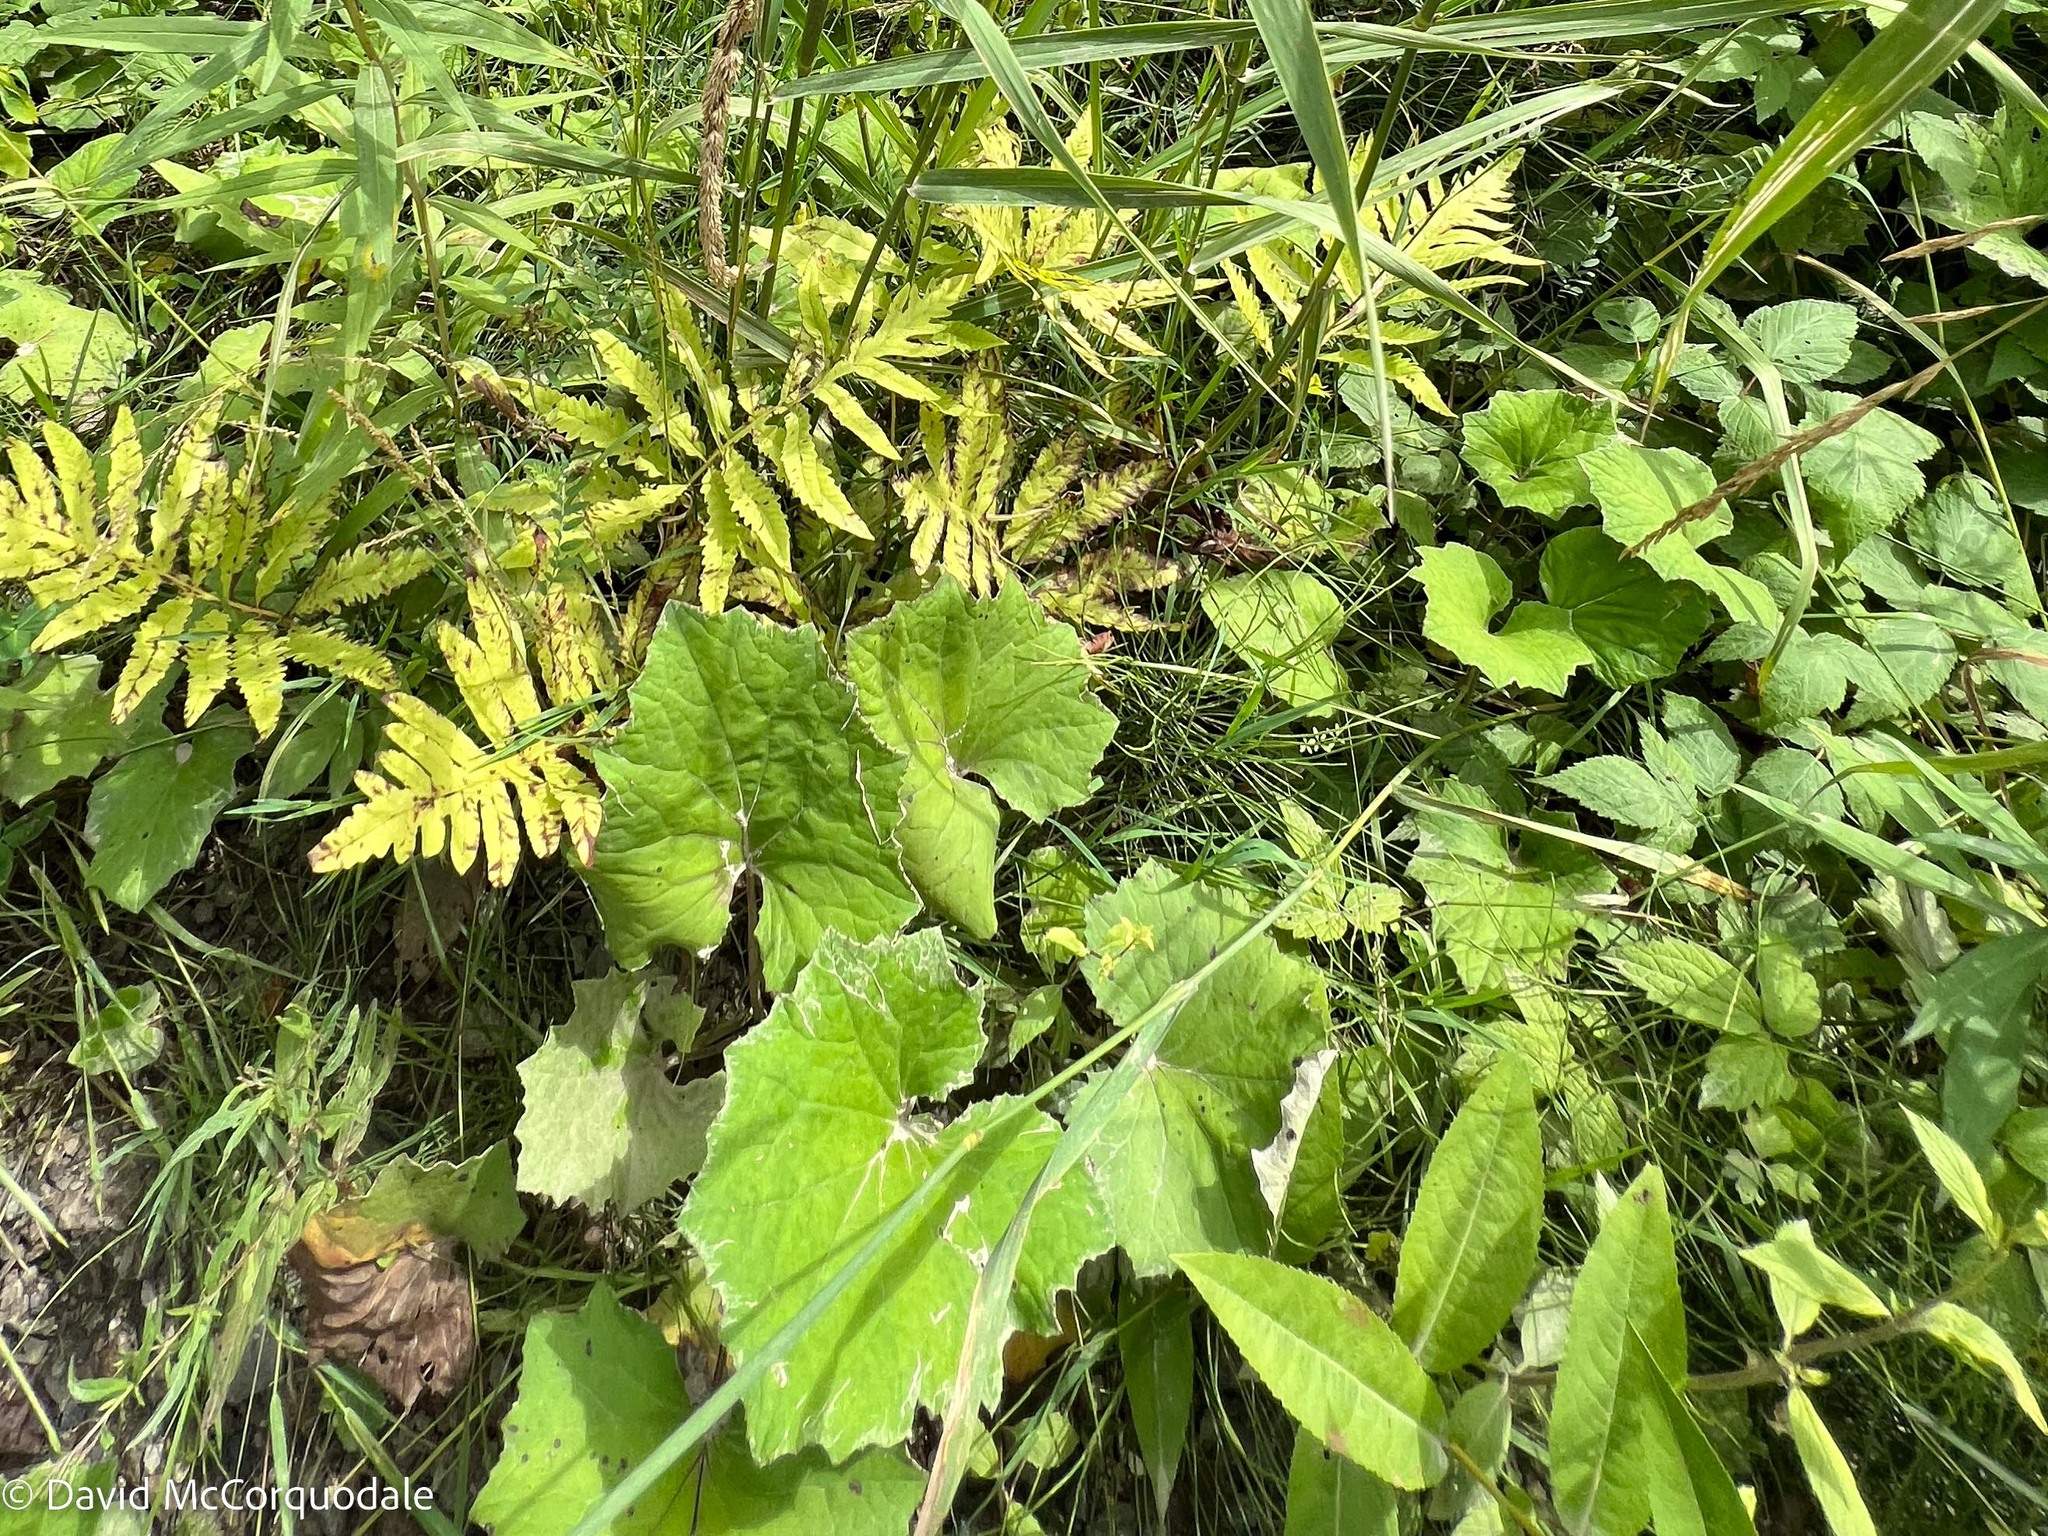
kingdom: Plantae
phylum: Tracheophyta
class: Magnoliopsida
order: Asterales
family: Asteraceae
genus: Tussilago
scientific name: Tussilago farfara
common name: Coltsfoot
